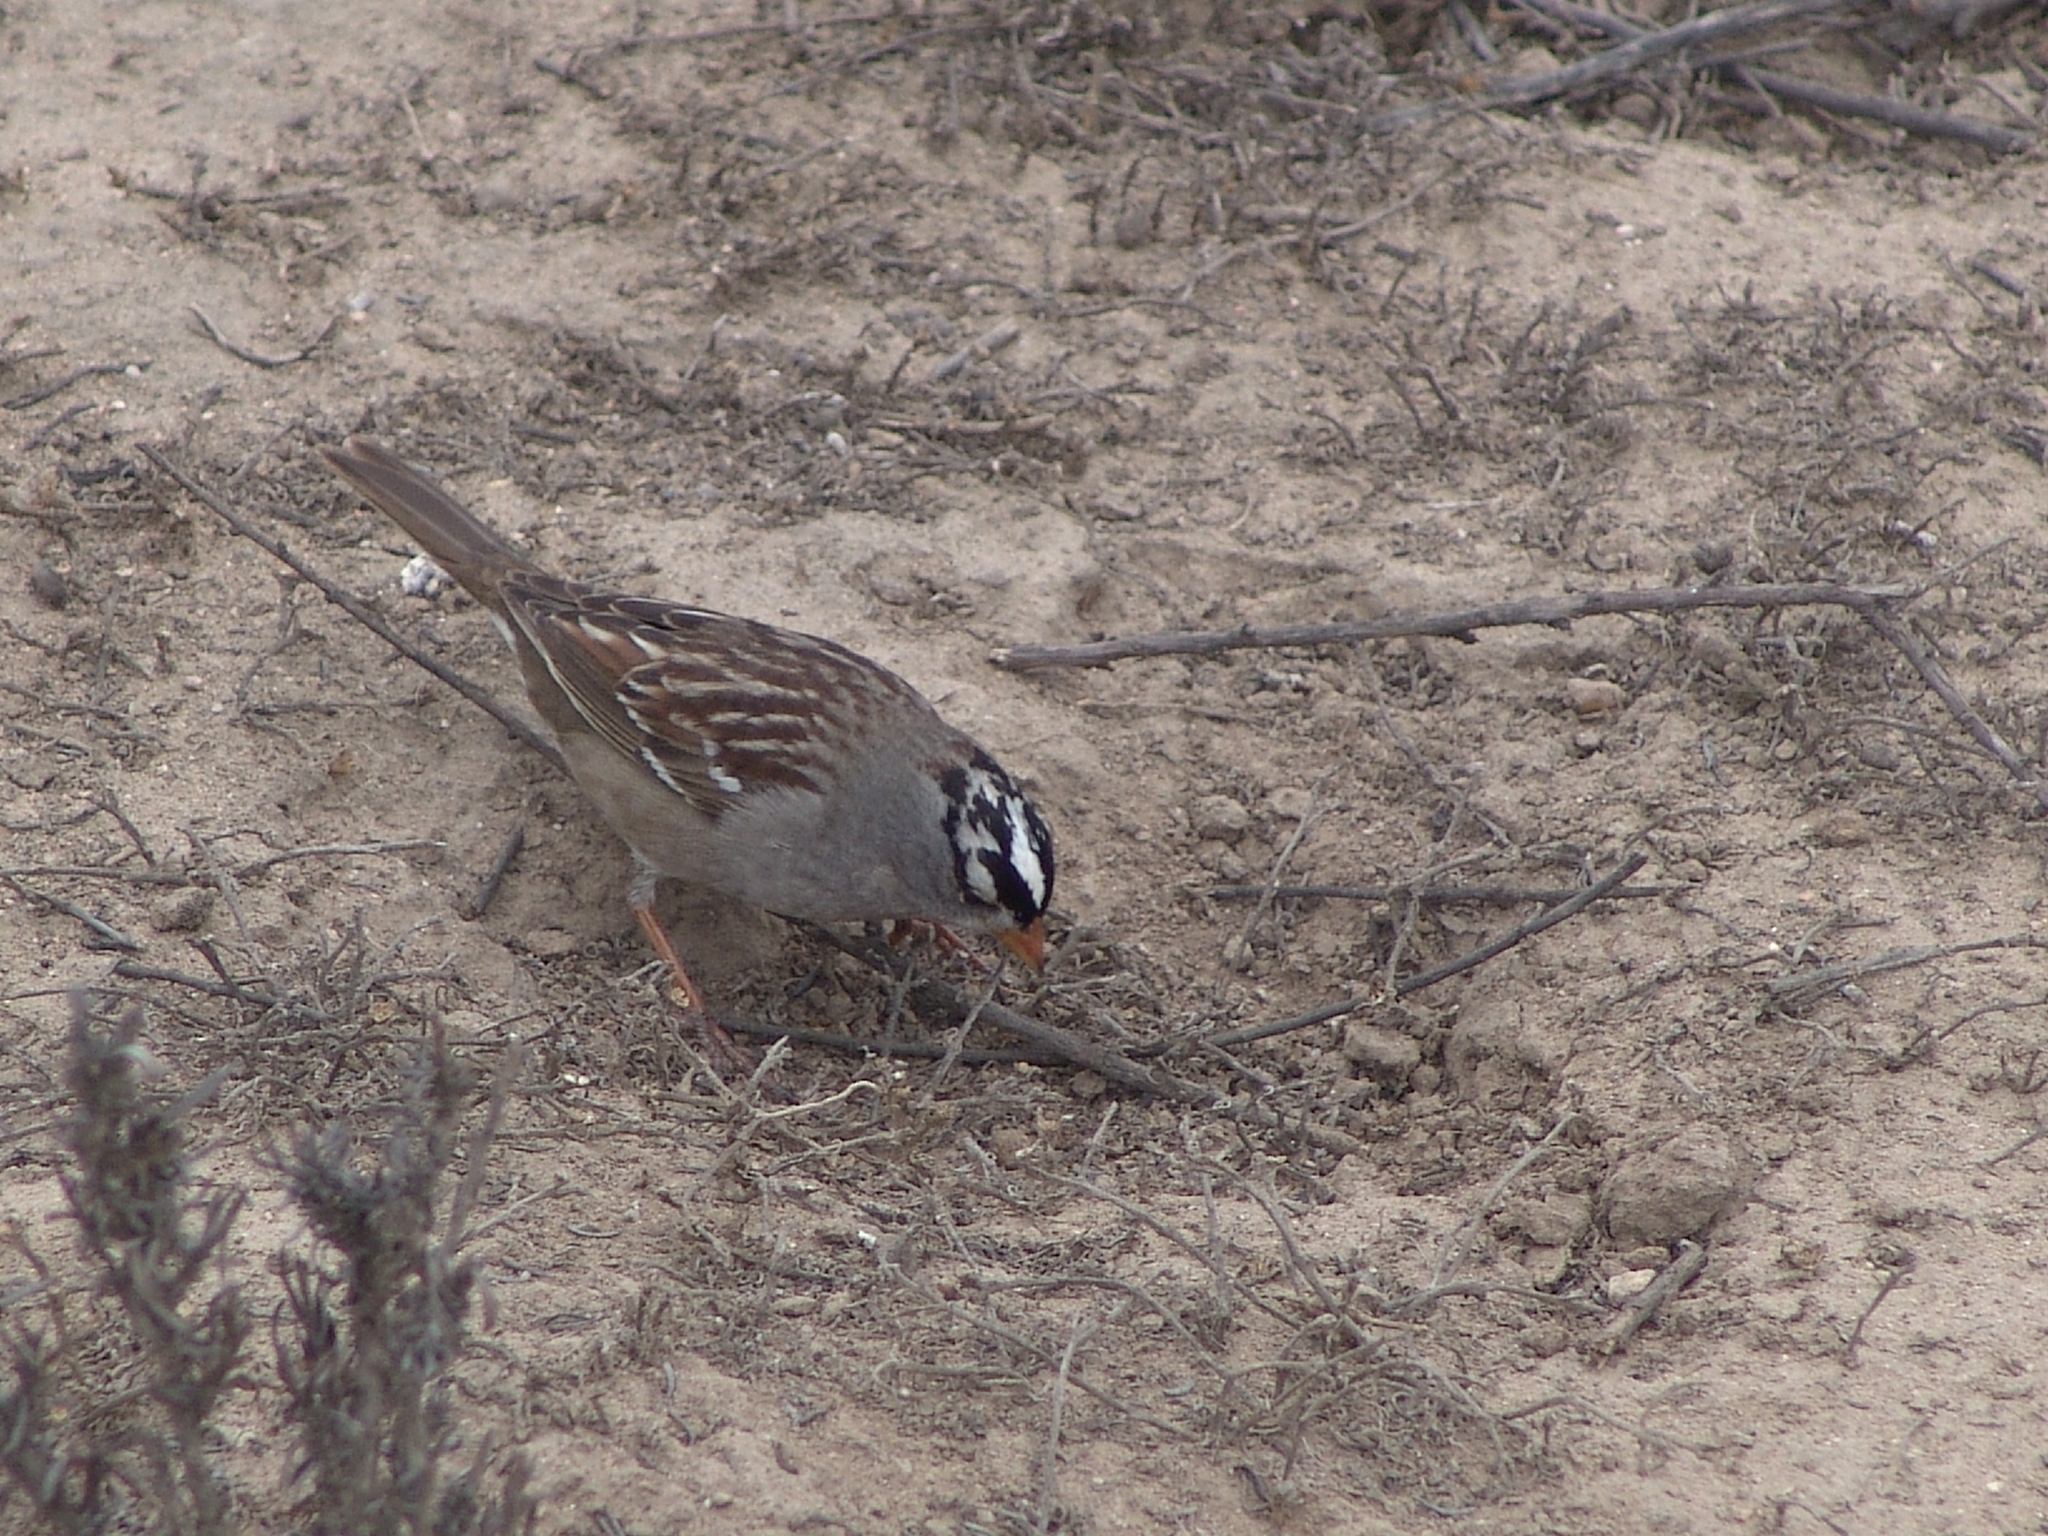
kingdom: Animalia
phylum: Chordata
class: Aves
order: Passeriformes
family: Passerellidae
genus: Zonotrichia
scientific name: Zonotrichia leucophrys
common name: White-crowned sparrow
